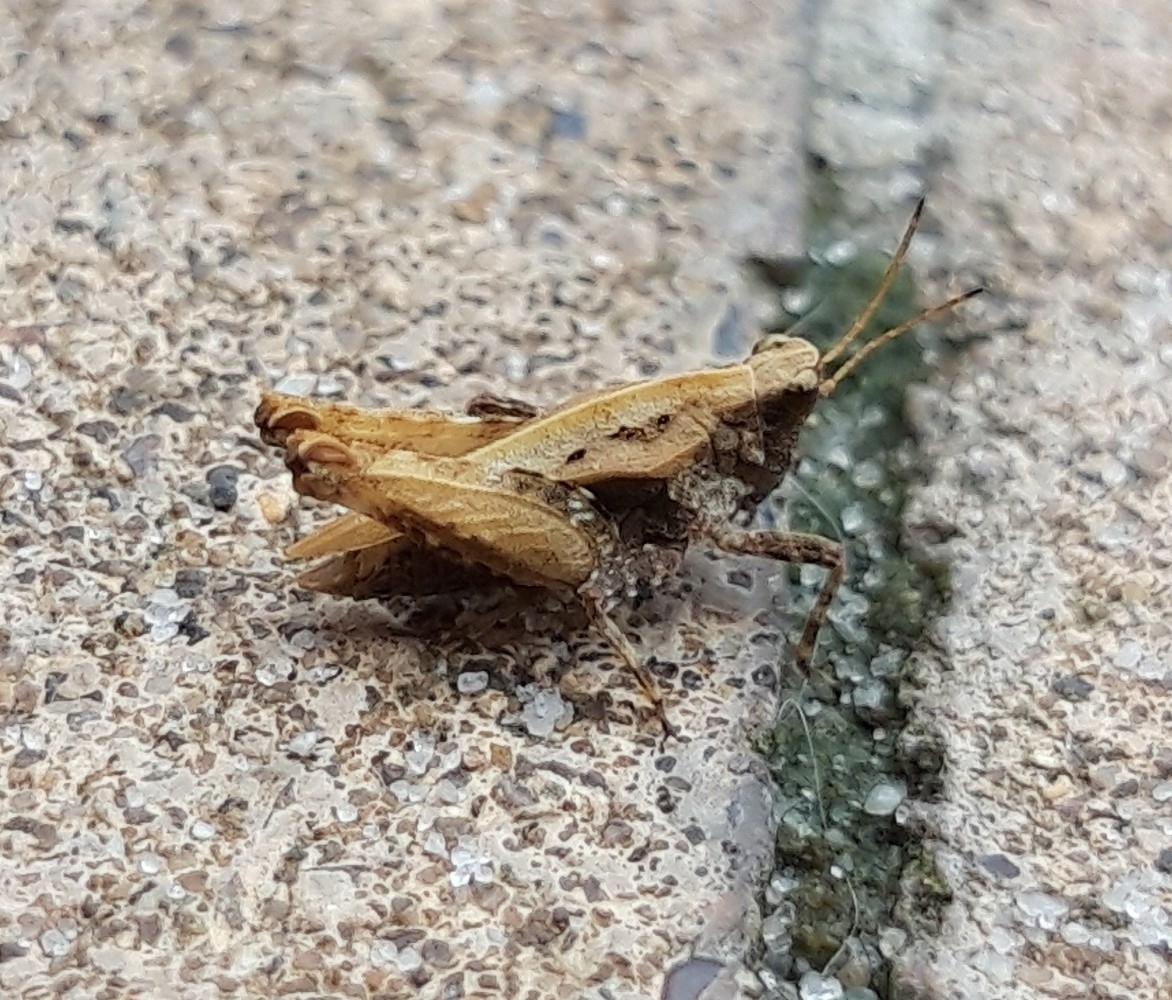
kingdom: Animalia
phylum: Arthropoda
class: Insecta
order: Orthoptera
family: Tetrigidae
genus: Tetrix
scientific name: Tetrix undulata
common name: Common groundhopper
